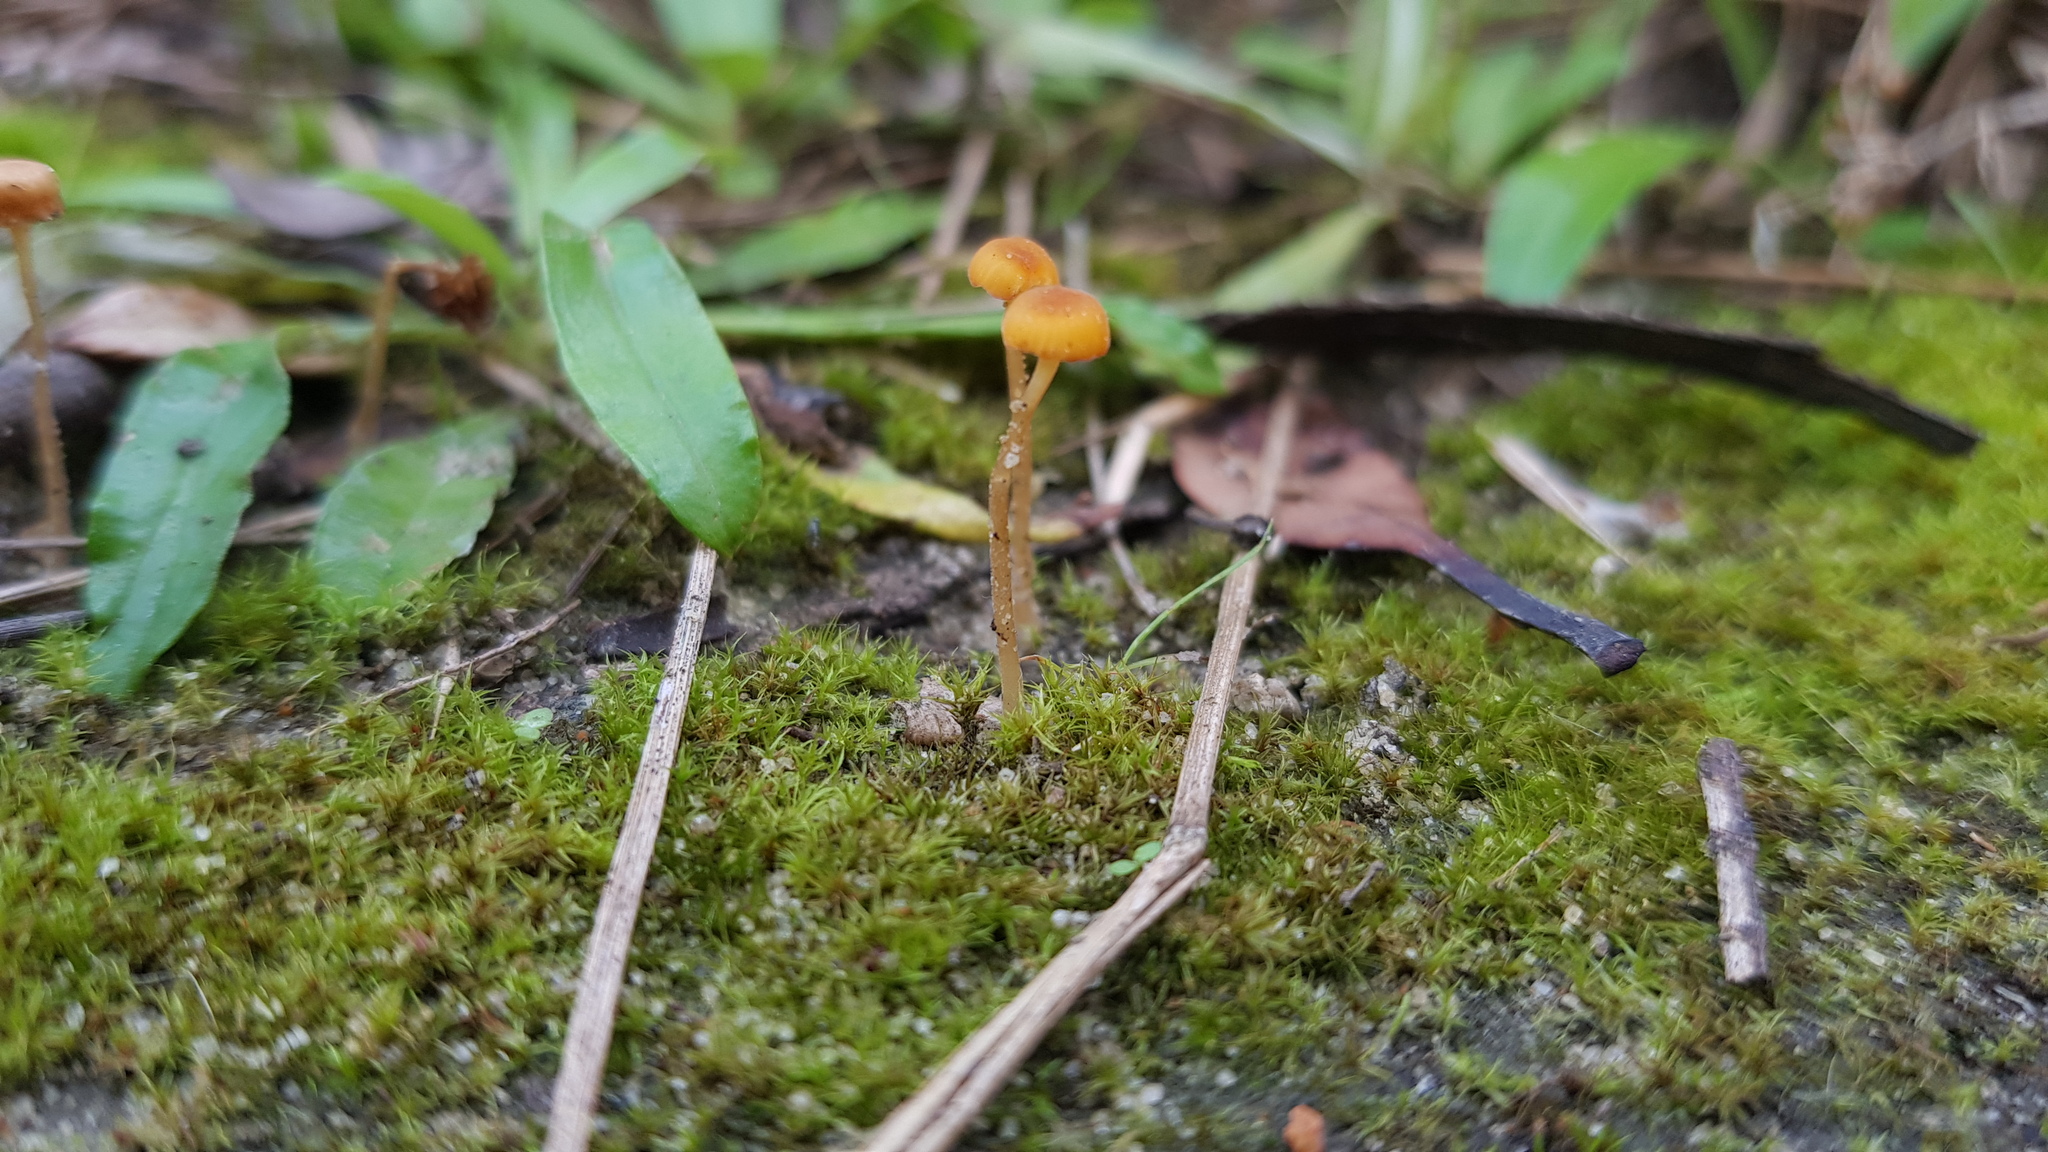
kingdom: Fungi
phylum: Basidiomycota
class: Agaricomycetes
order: Hymenochaetales
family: Rickenellaceae
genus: Rickenella
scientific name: Rickenella fibula
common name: Orange mosscap
